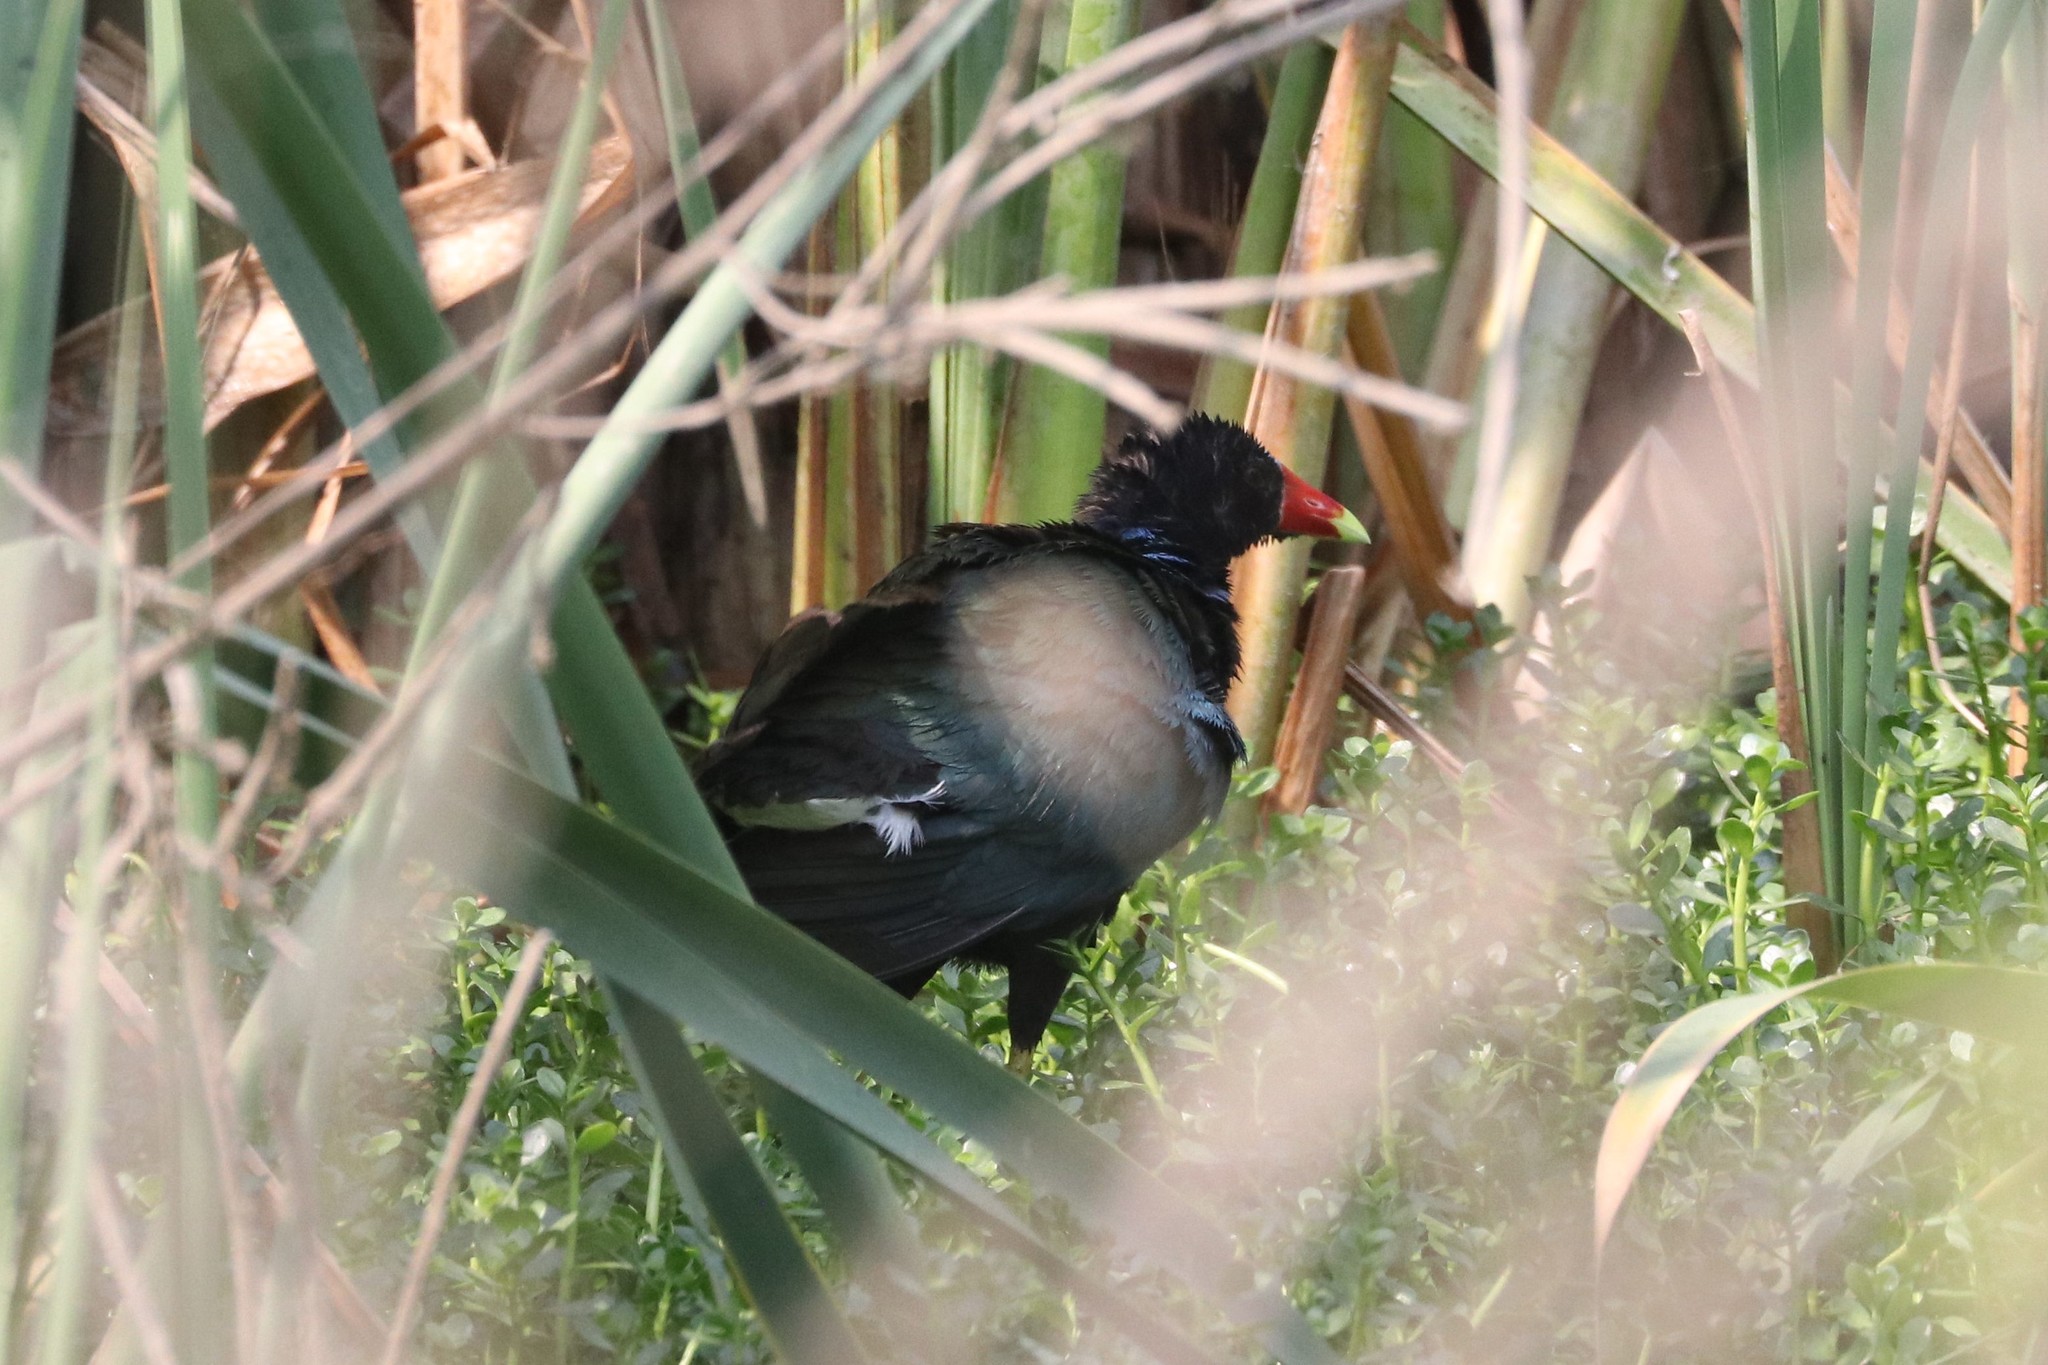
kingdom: Animalia
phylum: Chordata
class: Aves
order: Gruiformes
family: Rallidae
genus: Porphyrio
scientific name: Porphyrio martinica
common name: Purple gallinule
